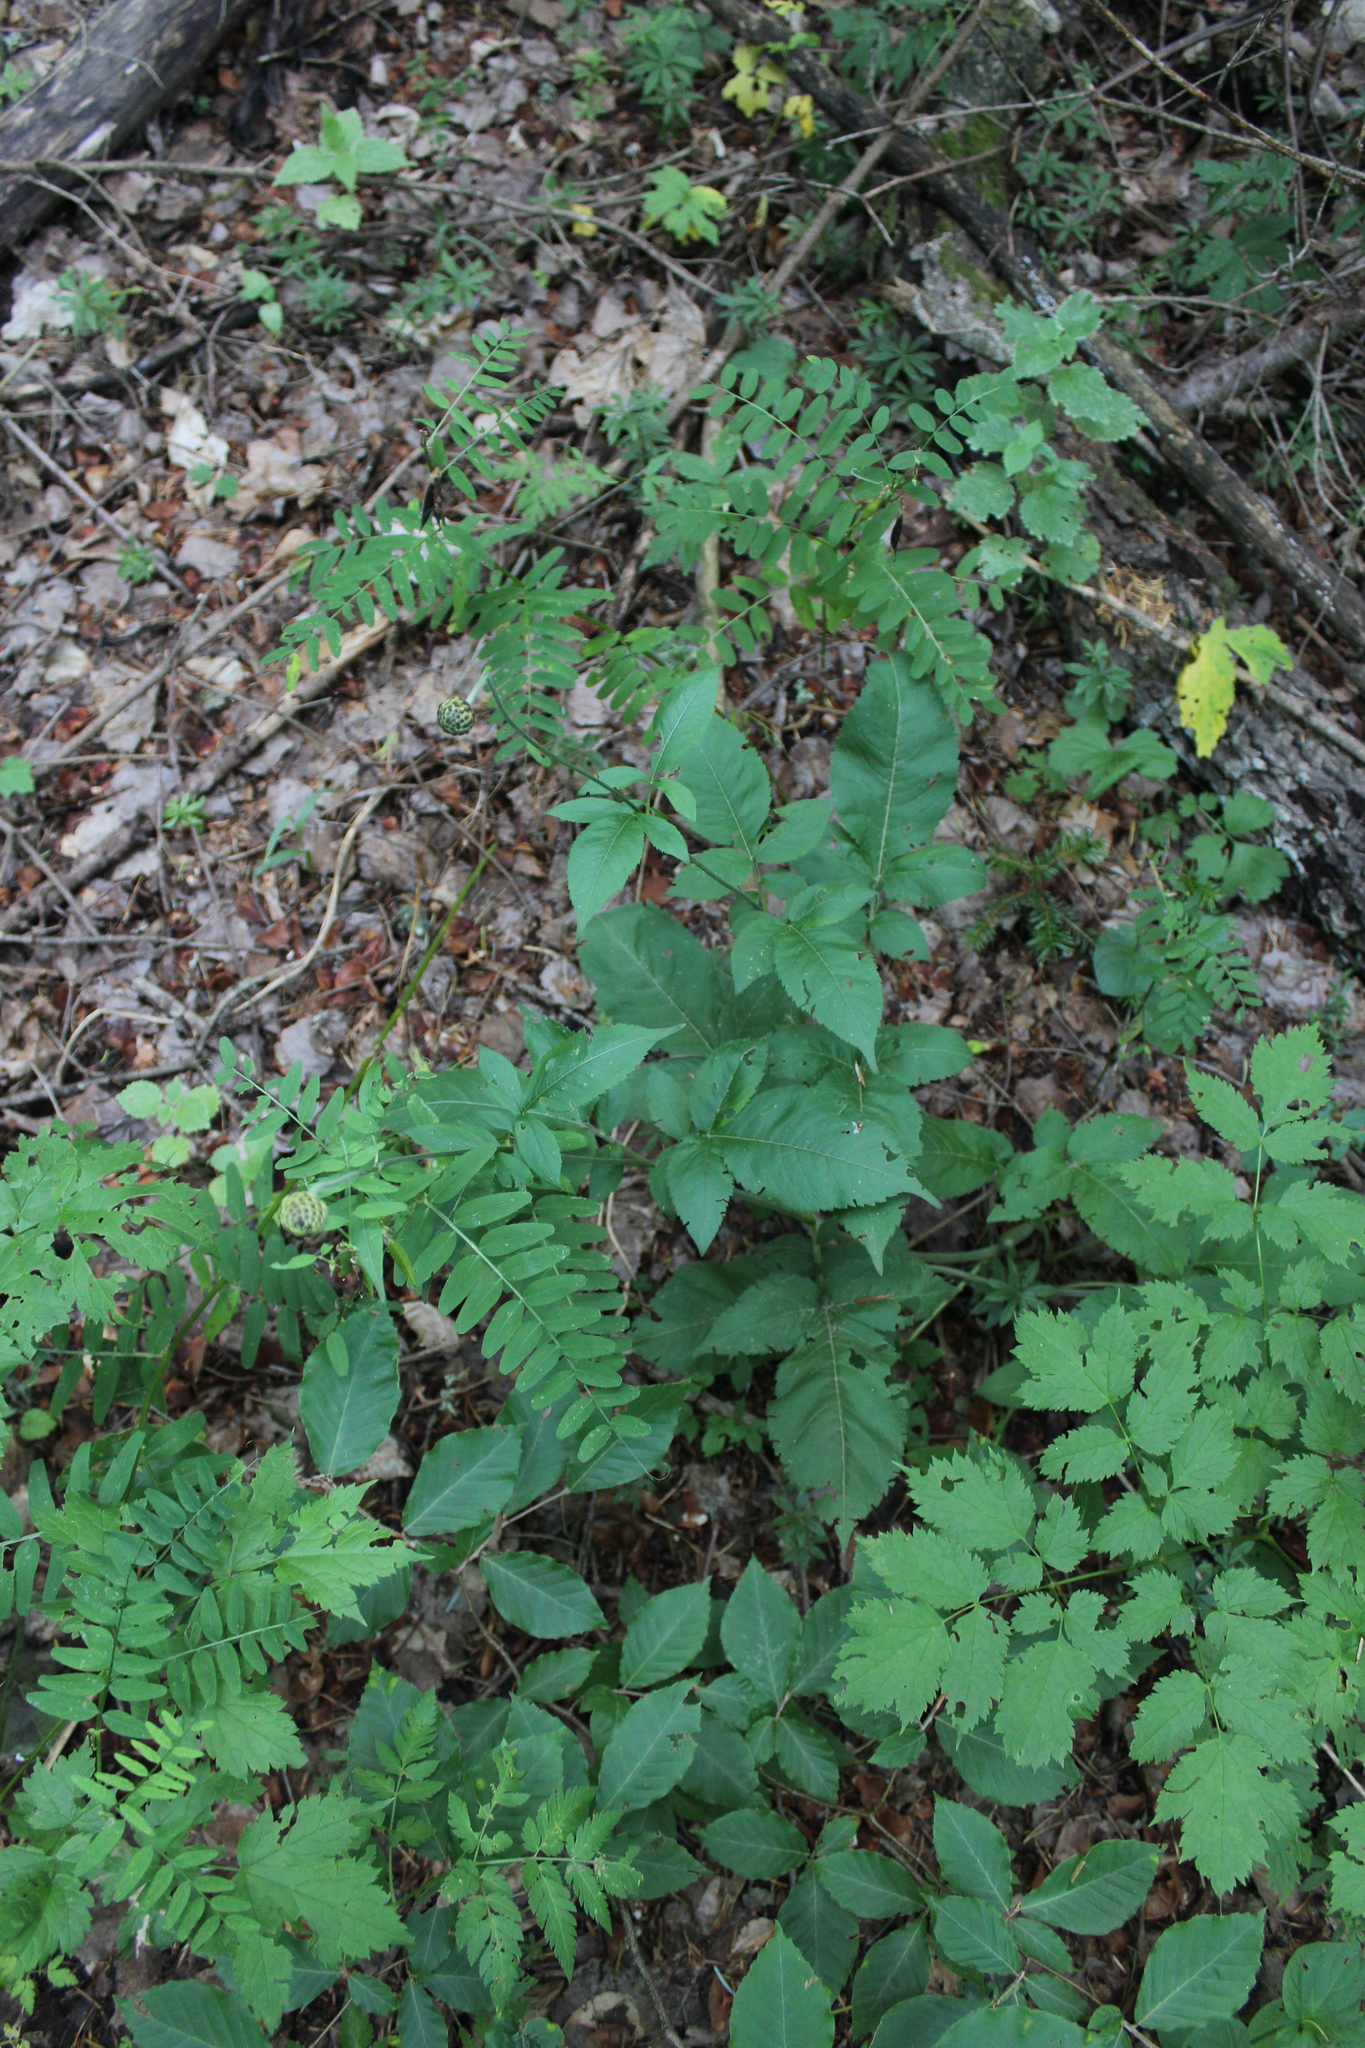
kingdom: Plantae
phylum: Tracheophyta
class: Magnoliopsida
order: Dipsacales
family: Caprifoliaceae
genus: Cephalaria
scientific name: Cephalaria gigantea
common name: Tatarian cephalaria
